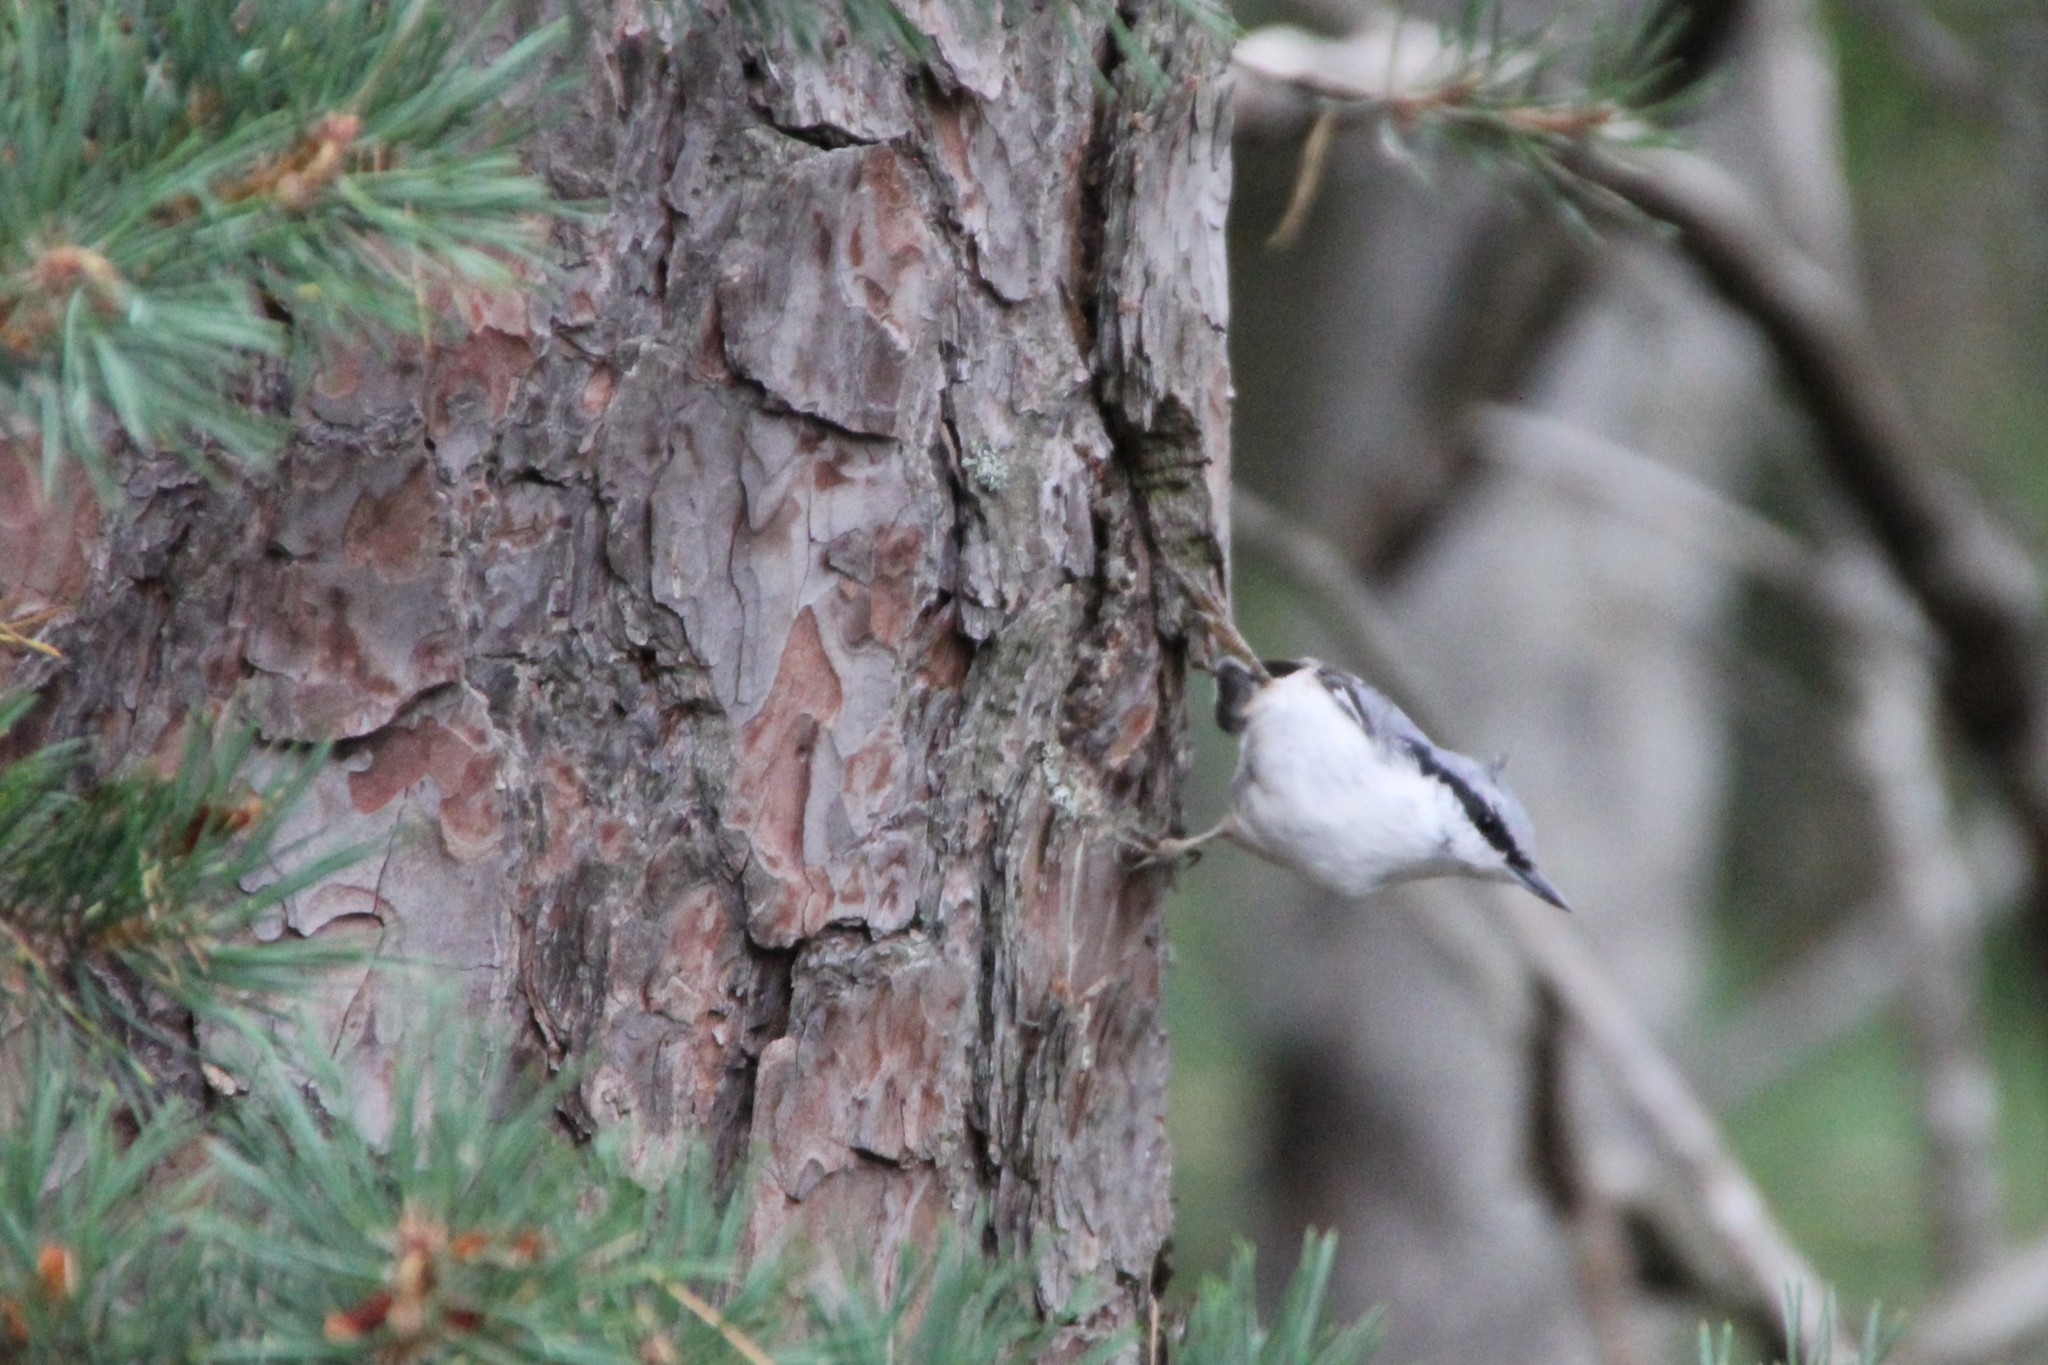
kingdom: Animalia
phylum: Chordata
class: Aves
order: Passeriformes
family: Sittidae
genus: Sitta
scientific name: Sitta europaea
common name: Eurasian nuthatch
